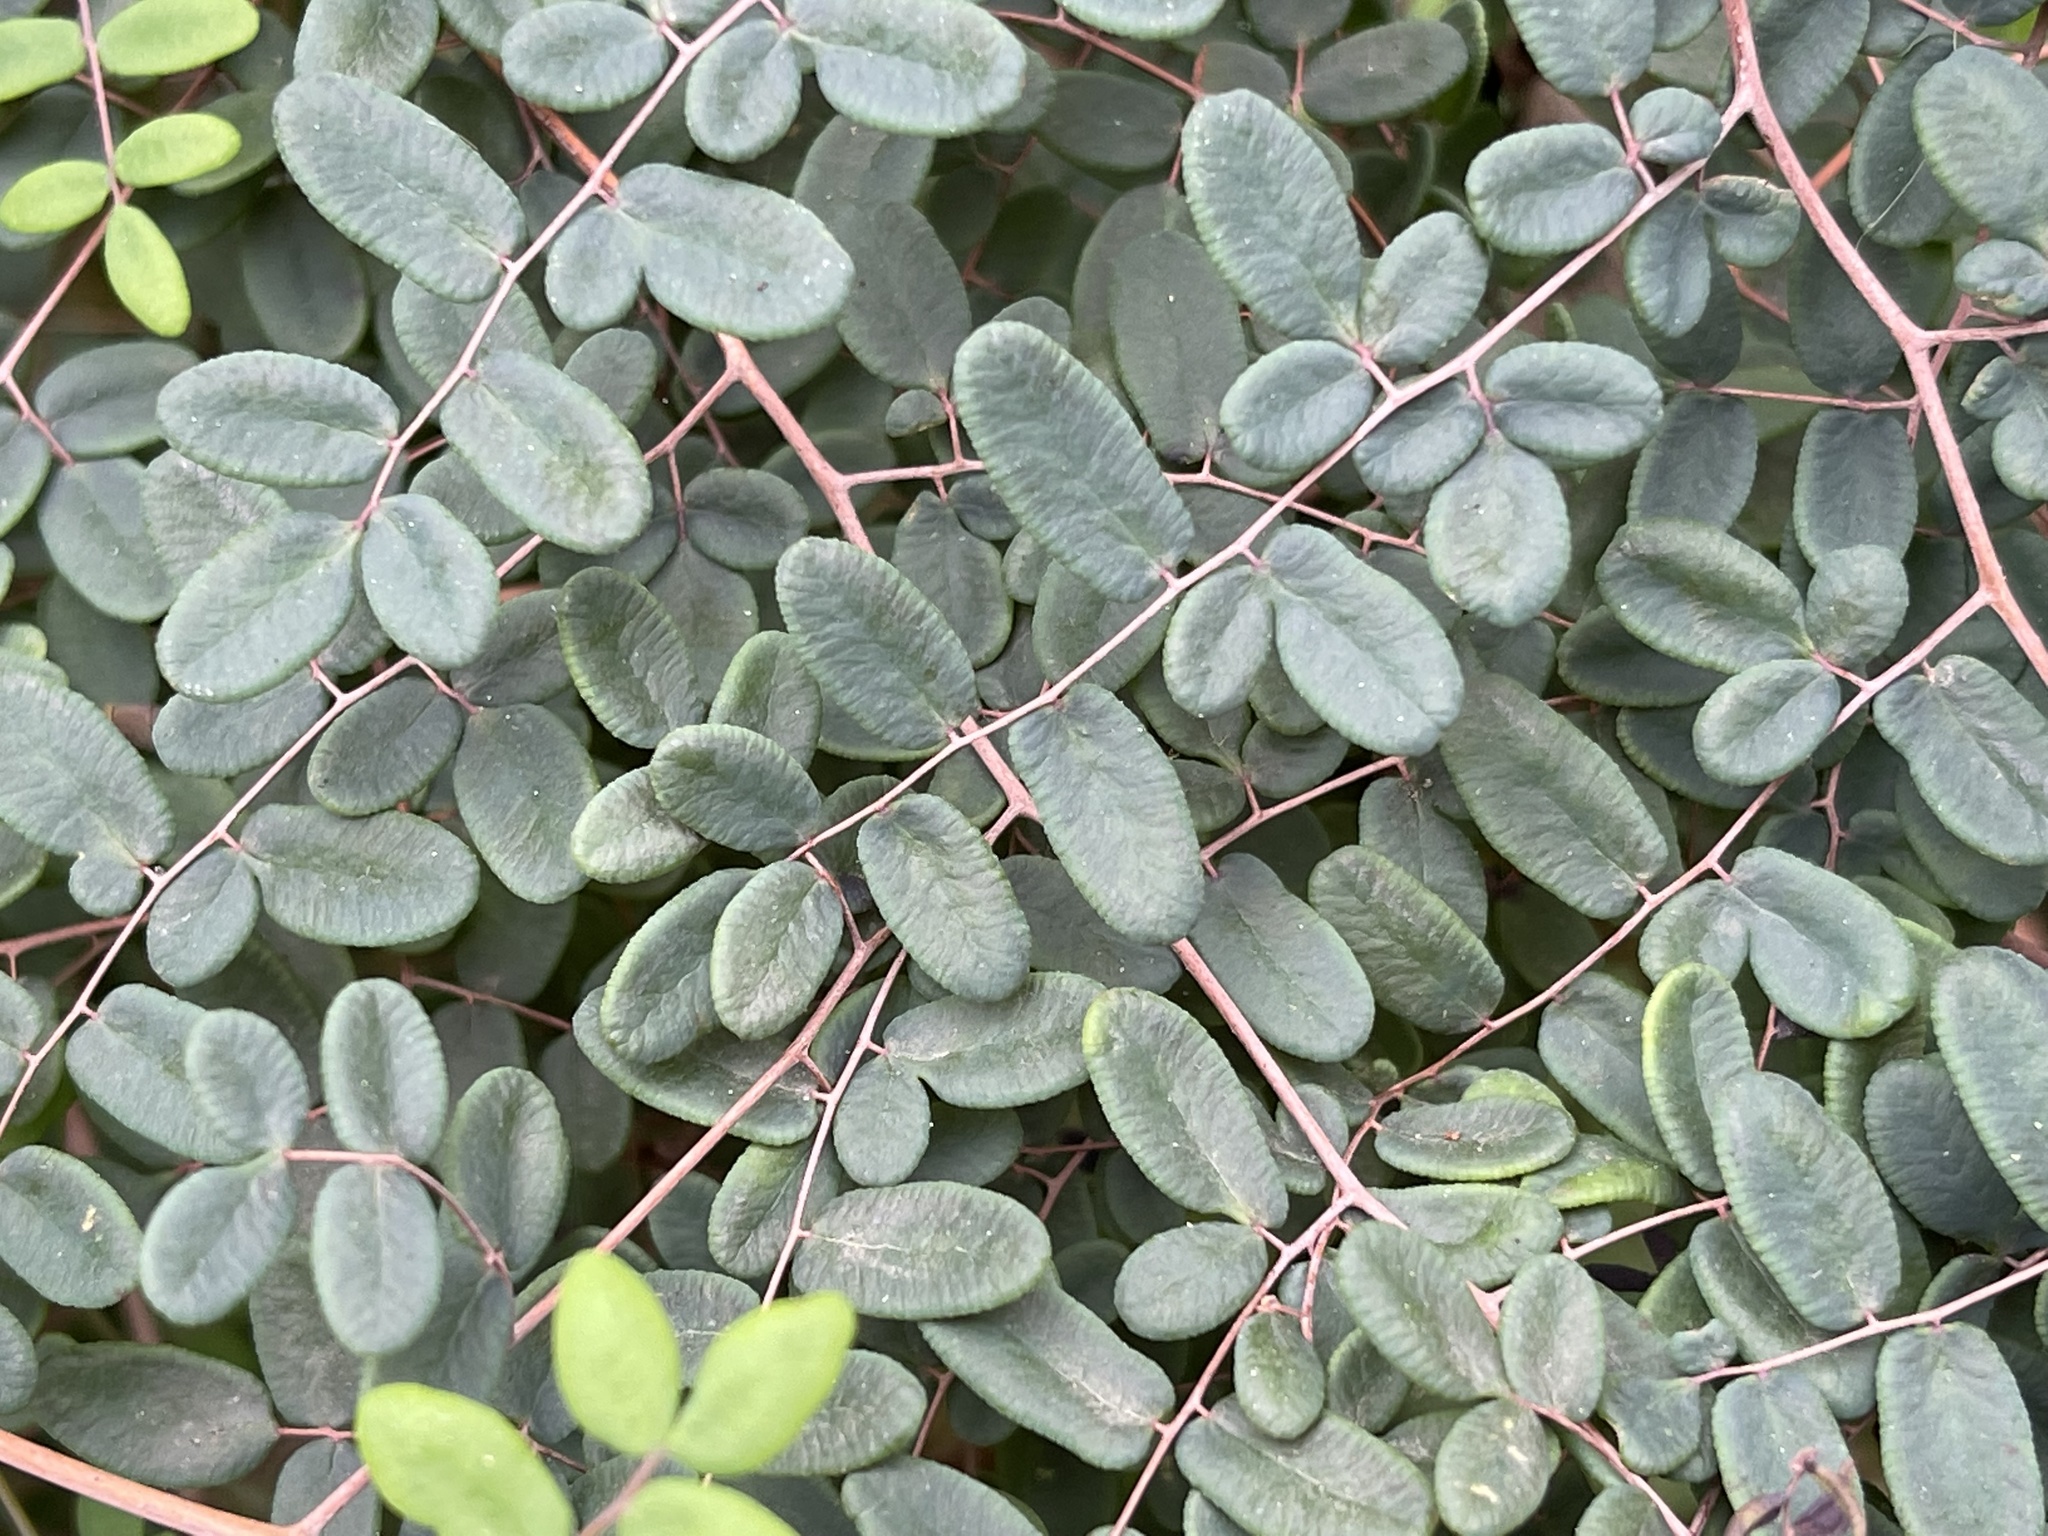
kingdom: Plantae
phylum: Tracheophyta
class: Polypodiopsida
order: Polypodiales
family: Pteridaceae
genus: Pellaea
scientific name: Pellaea andromedifolia
